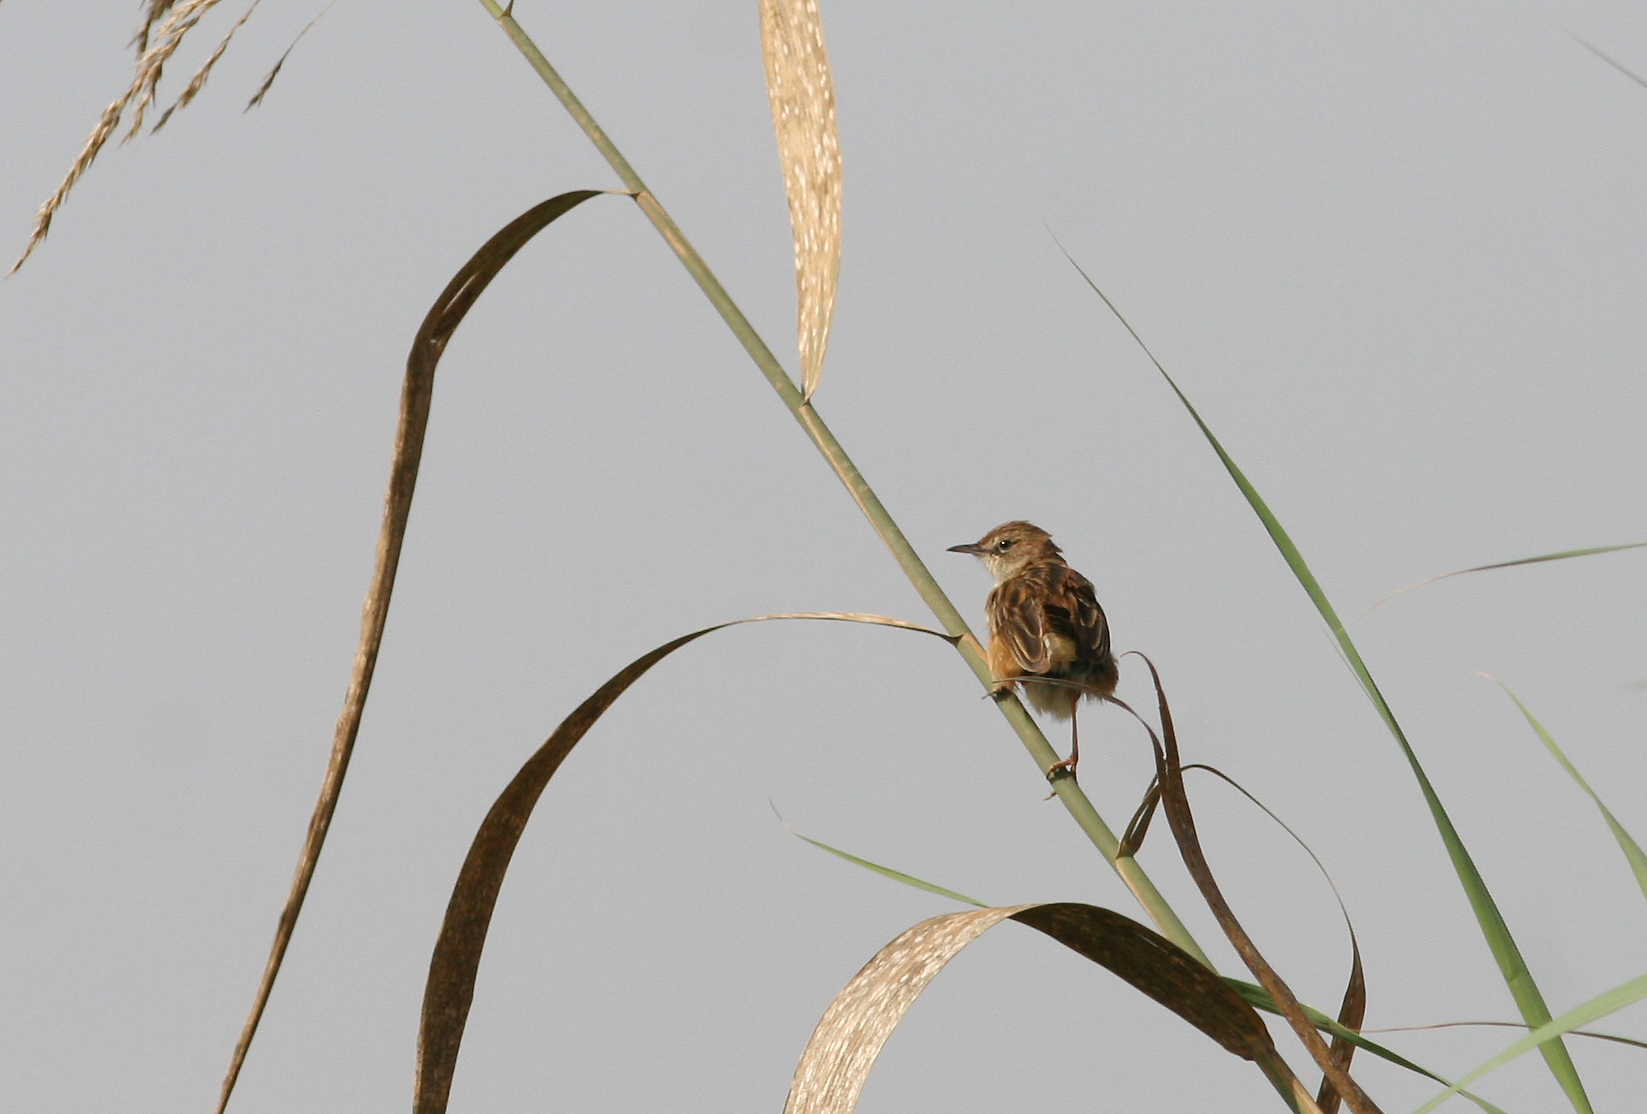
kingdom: Animalia
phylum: Chordata
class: Aves
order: Passeriformes
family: Cisticolidae
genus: Cisticola
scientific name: Cisticola juncidis
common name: Zitting cisticola
